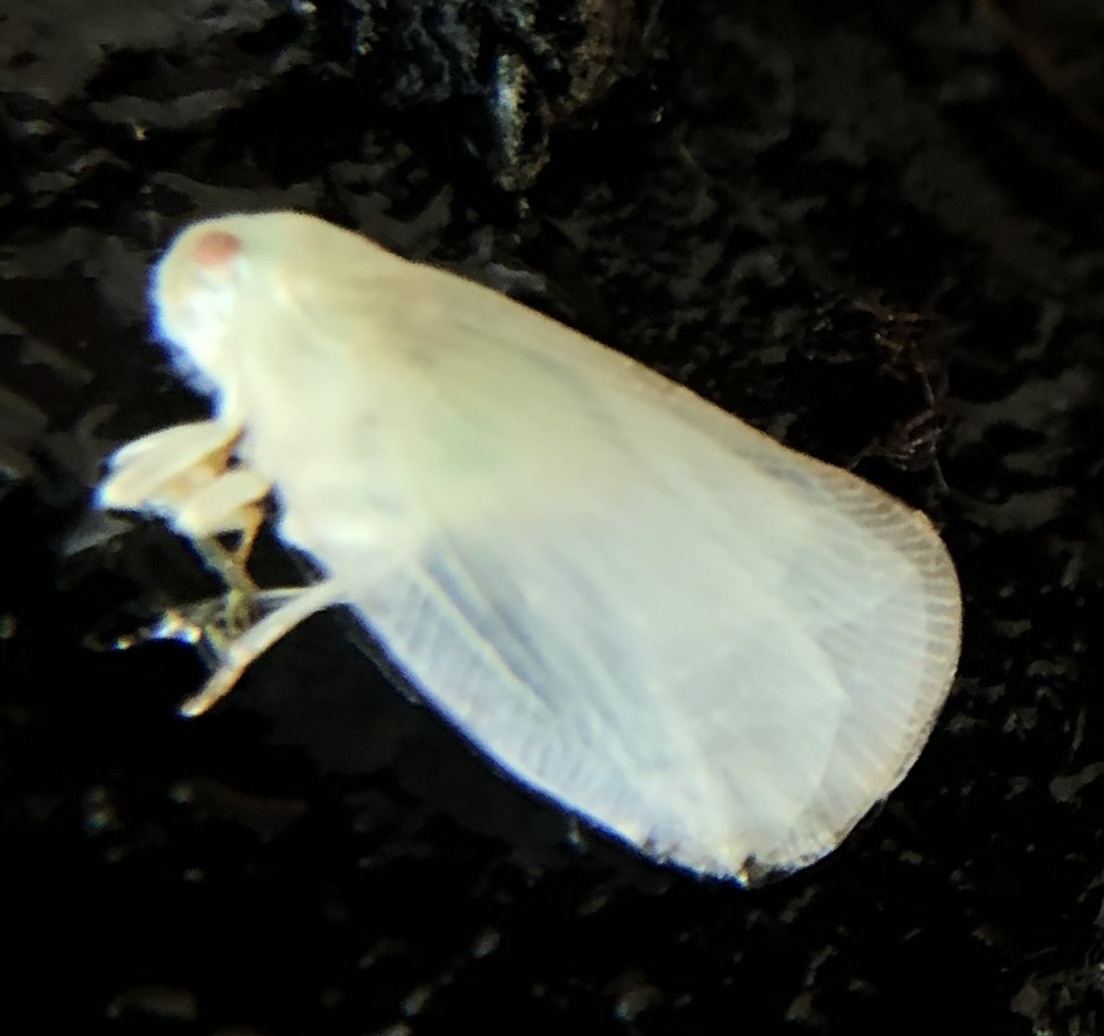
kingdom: Animalia
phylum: Arthropoda
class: Insecta
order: Hemiptera
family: Flatidae
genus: Ormenoides
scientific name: Ormenoides venusta
